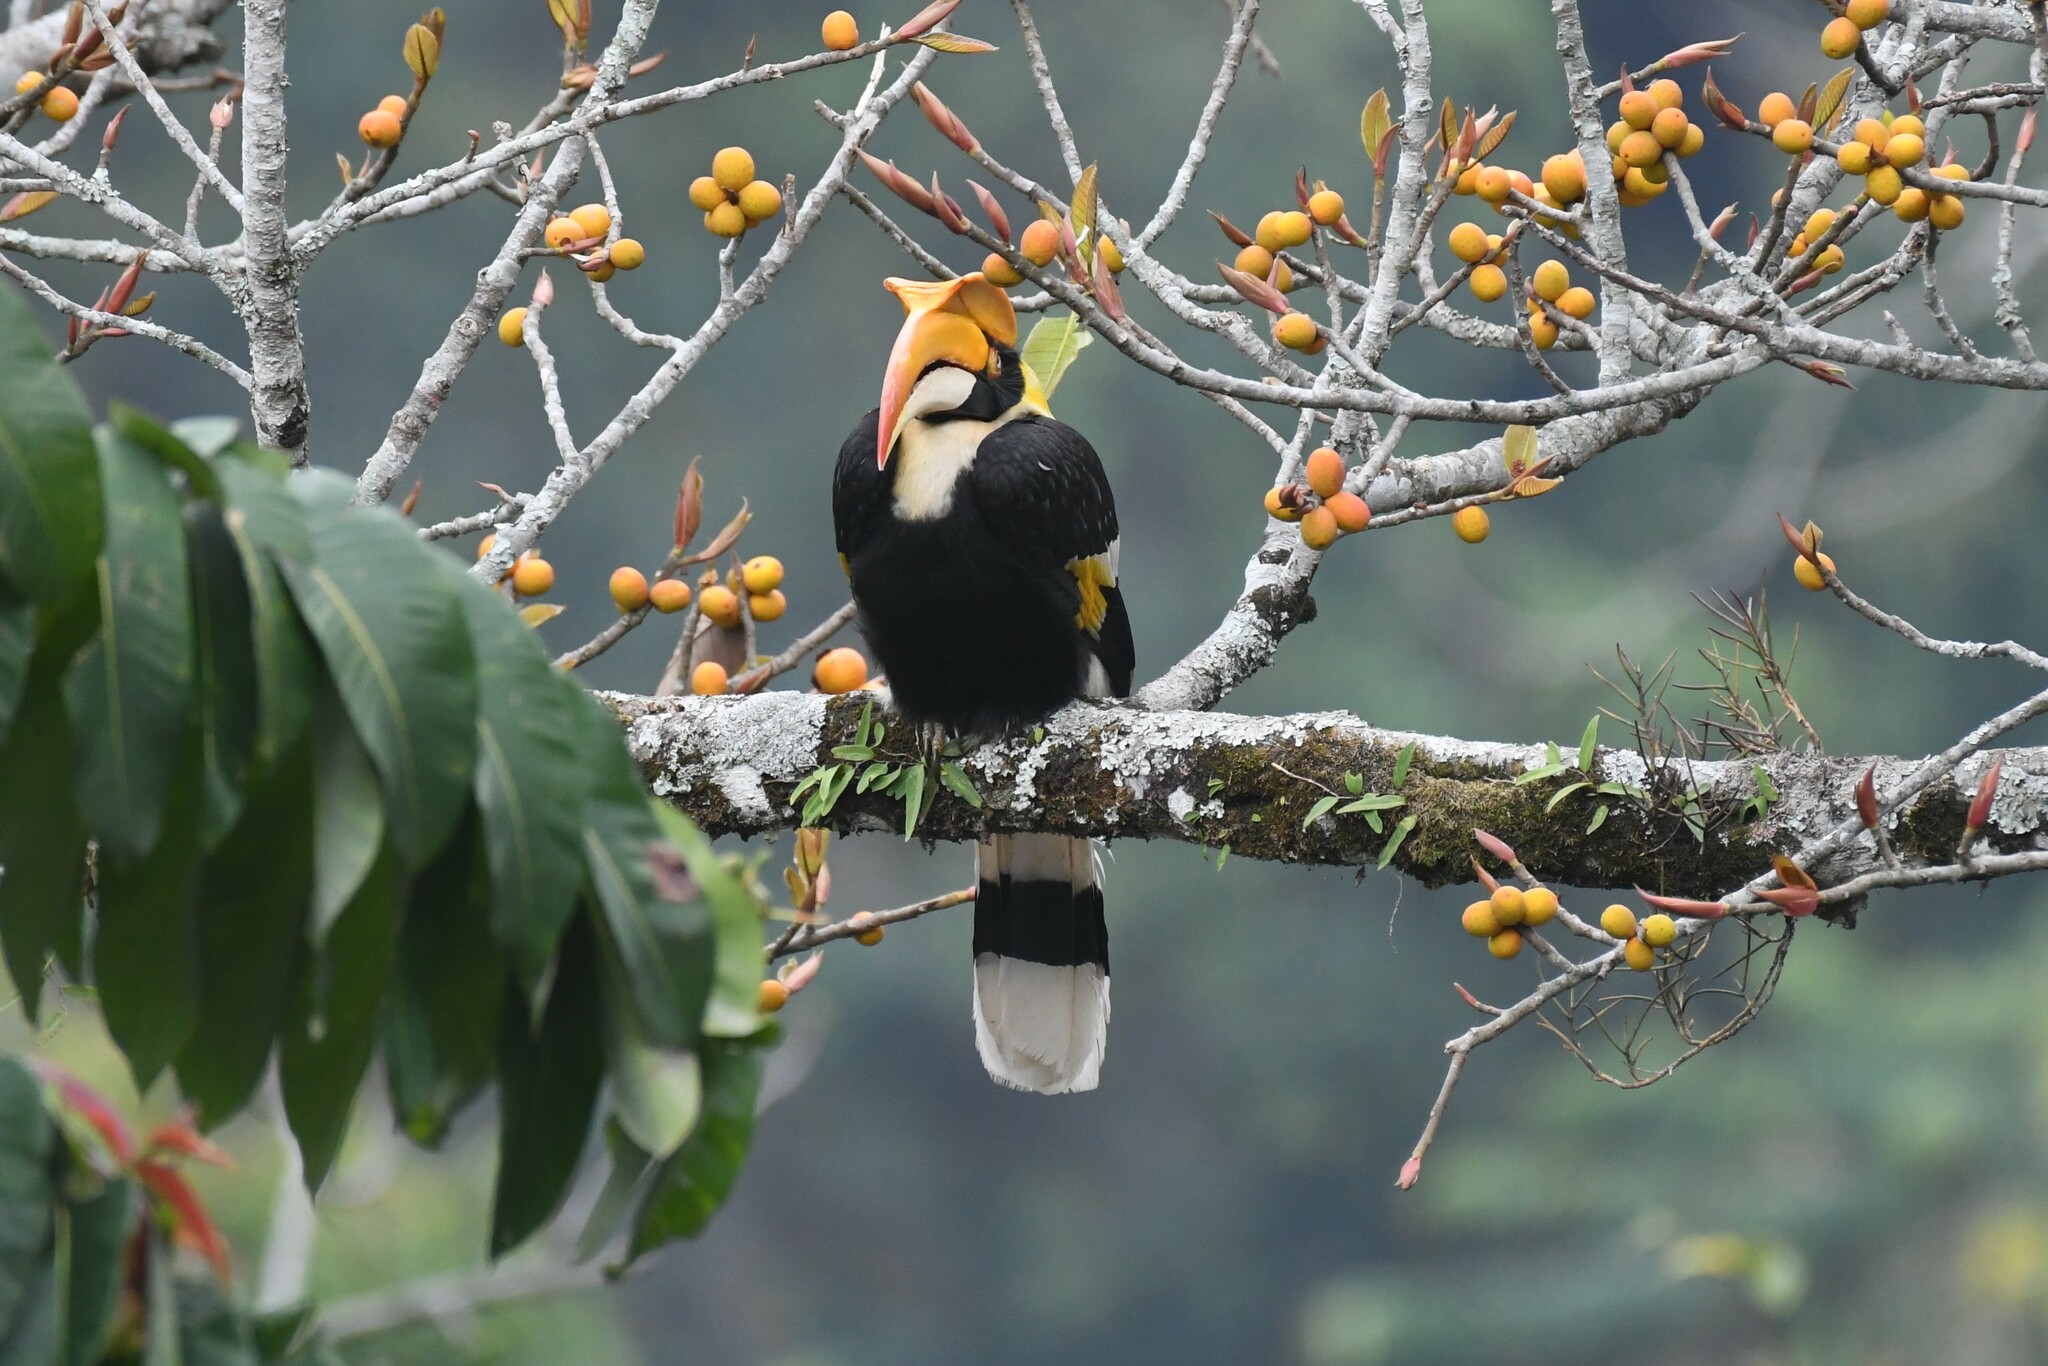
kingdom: Animalia
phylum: Chordata
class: Aves
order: Bucerotiformes
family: Bucerotidae
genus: Buceros
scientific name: Buceros bicornis
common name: Great hornbill
